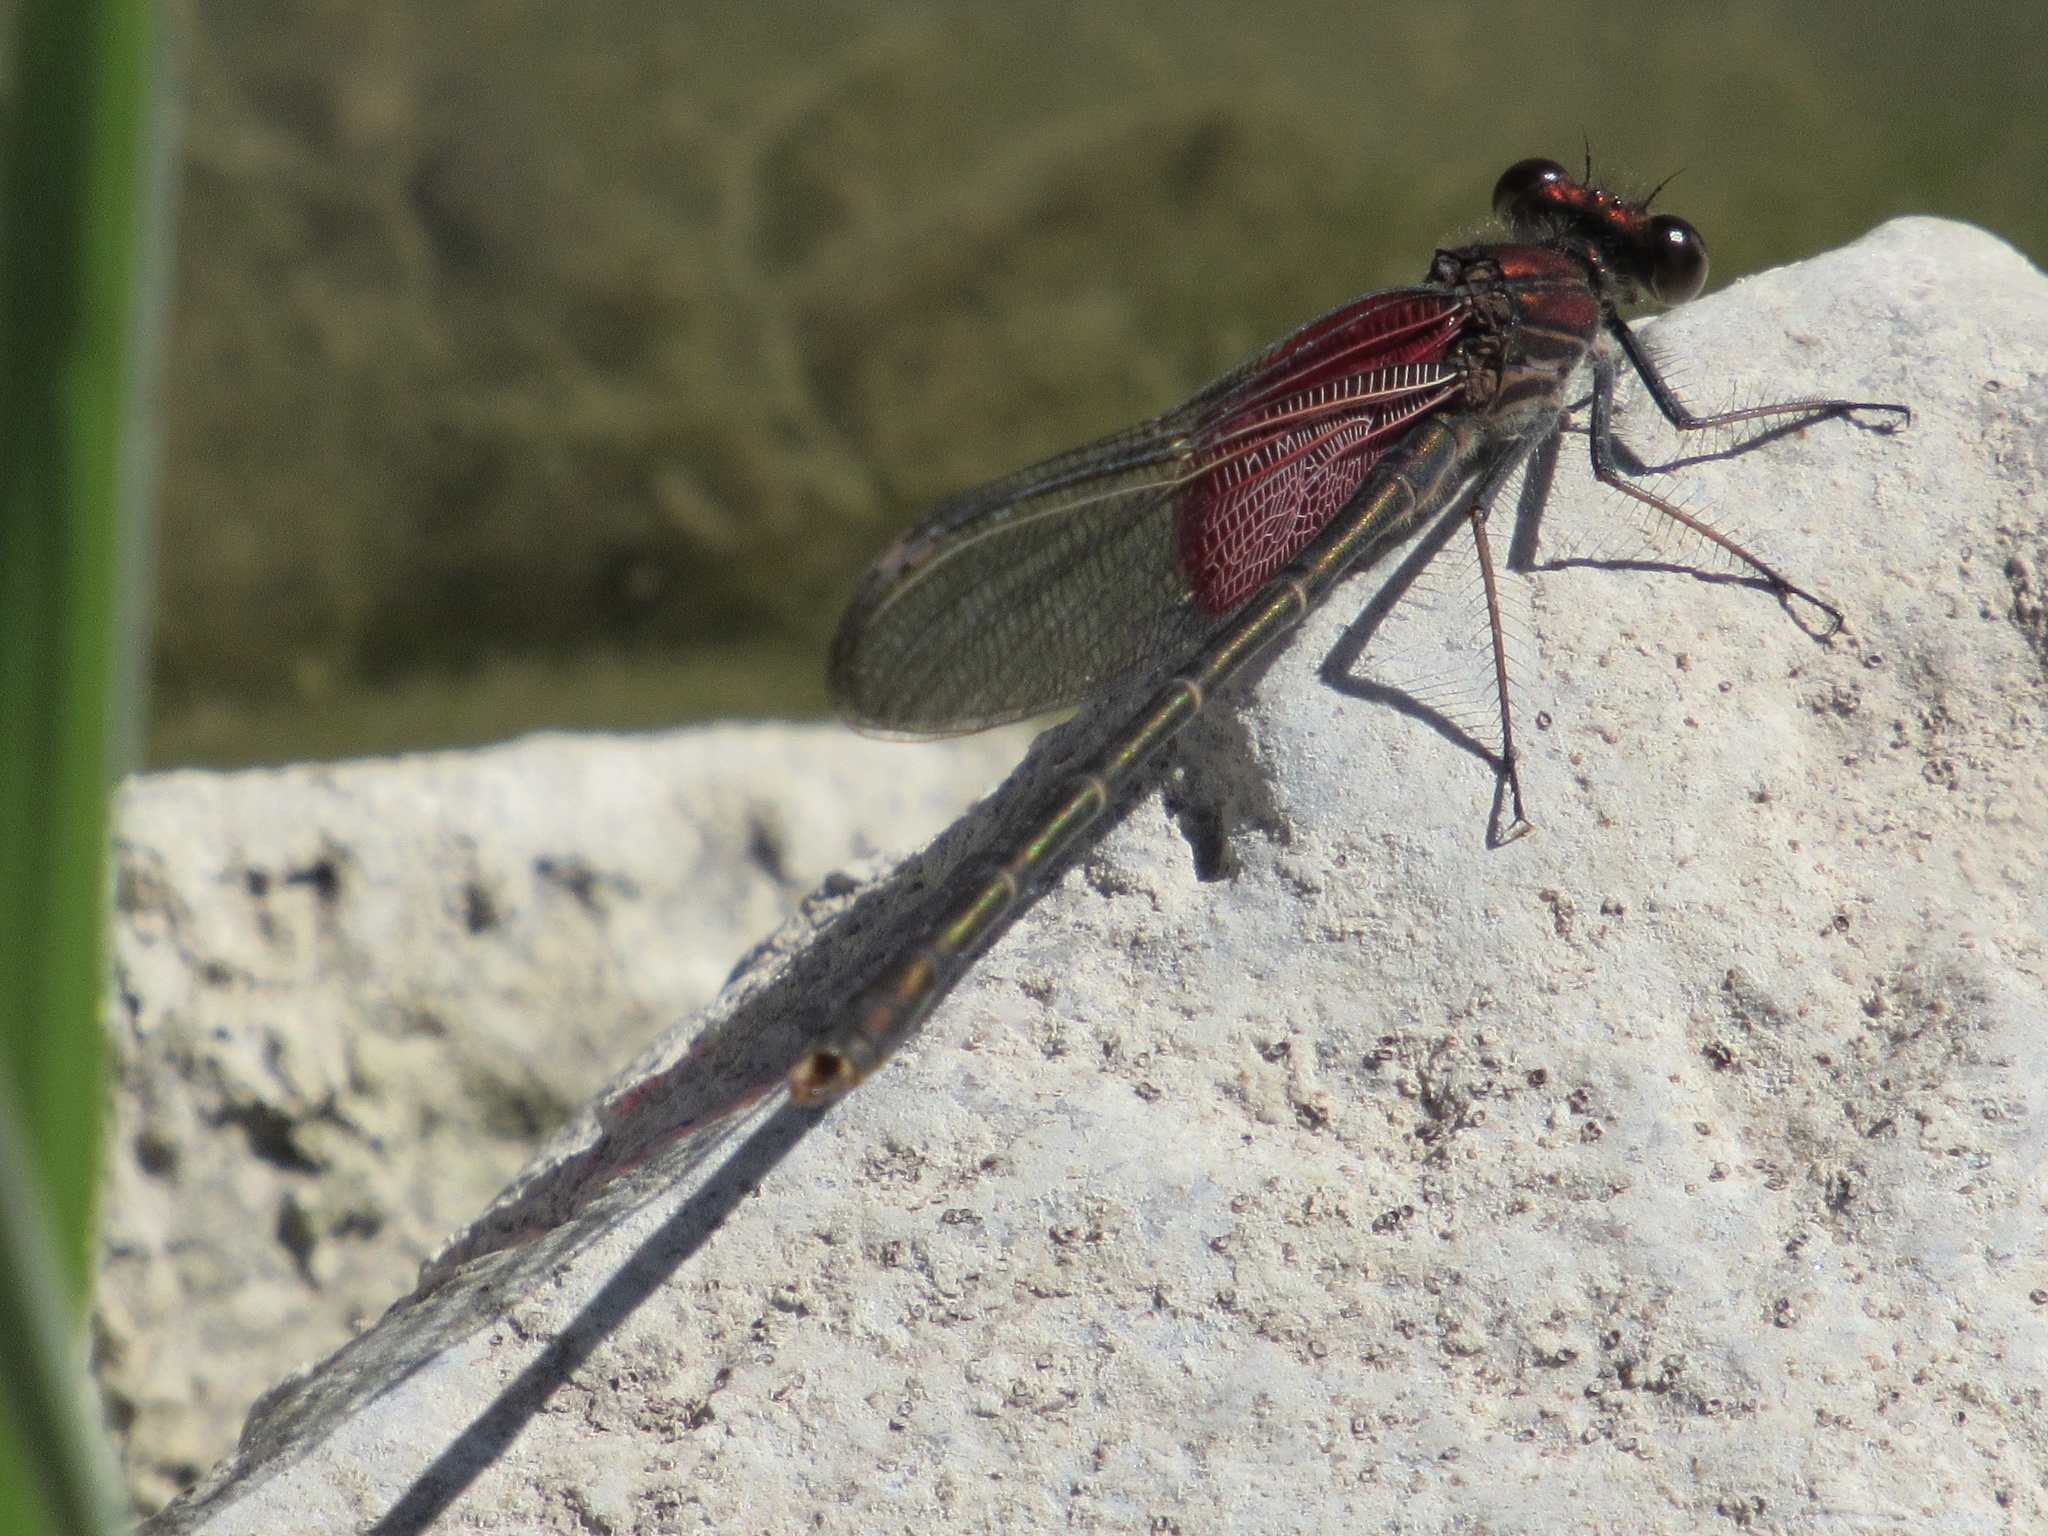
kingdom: Animalia
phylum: Arthropoda
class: Insecta
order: Odonata
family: Calopterygidae
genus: Hetaerina
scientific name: Hetaerina americana
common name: American rubyspot
